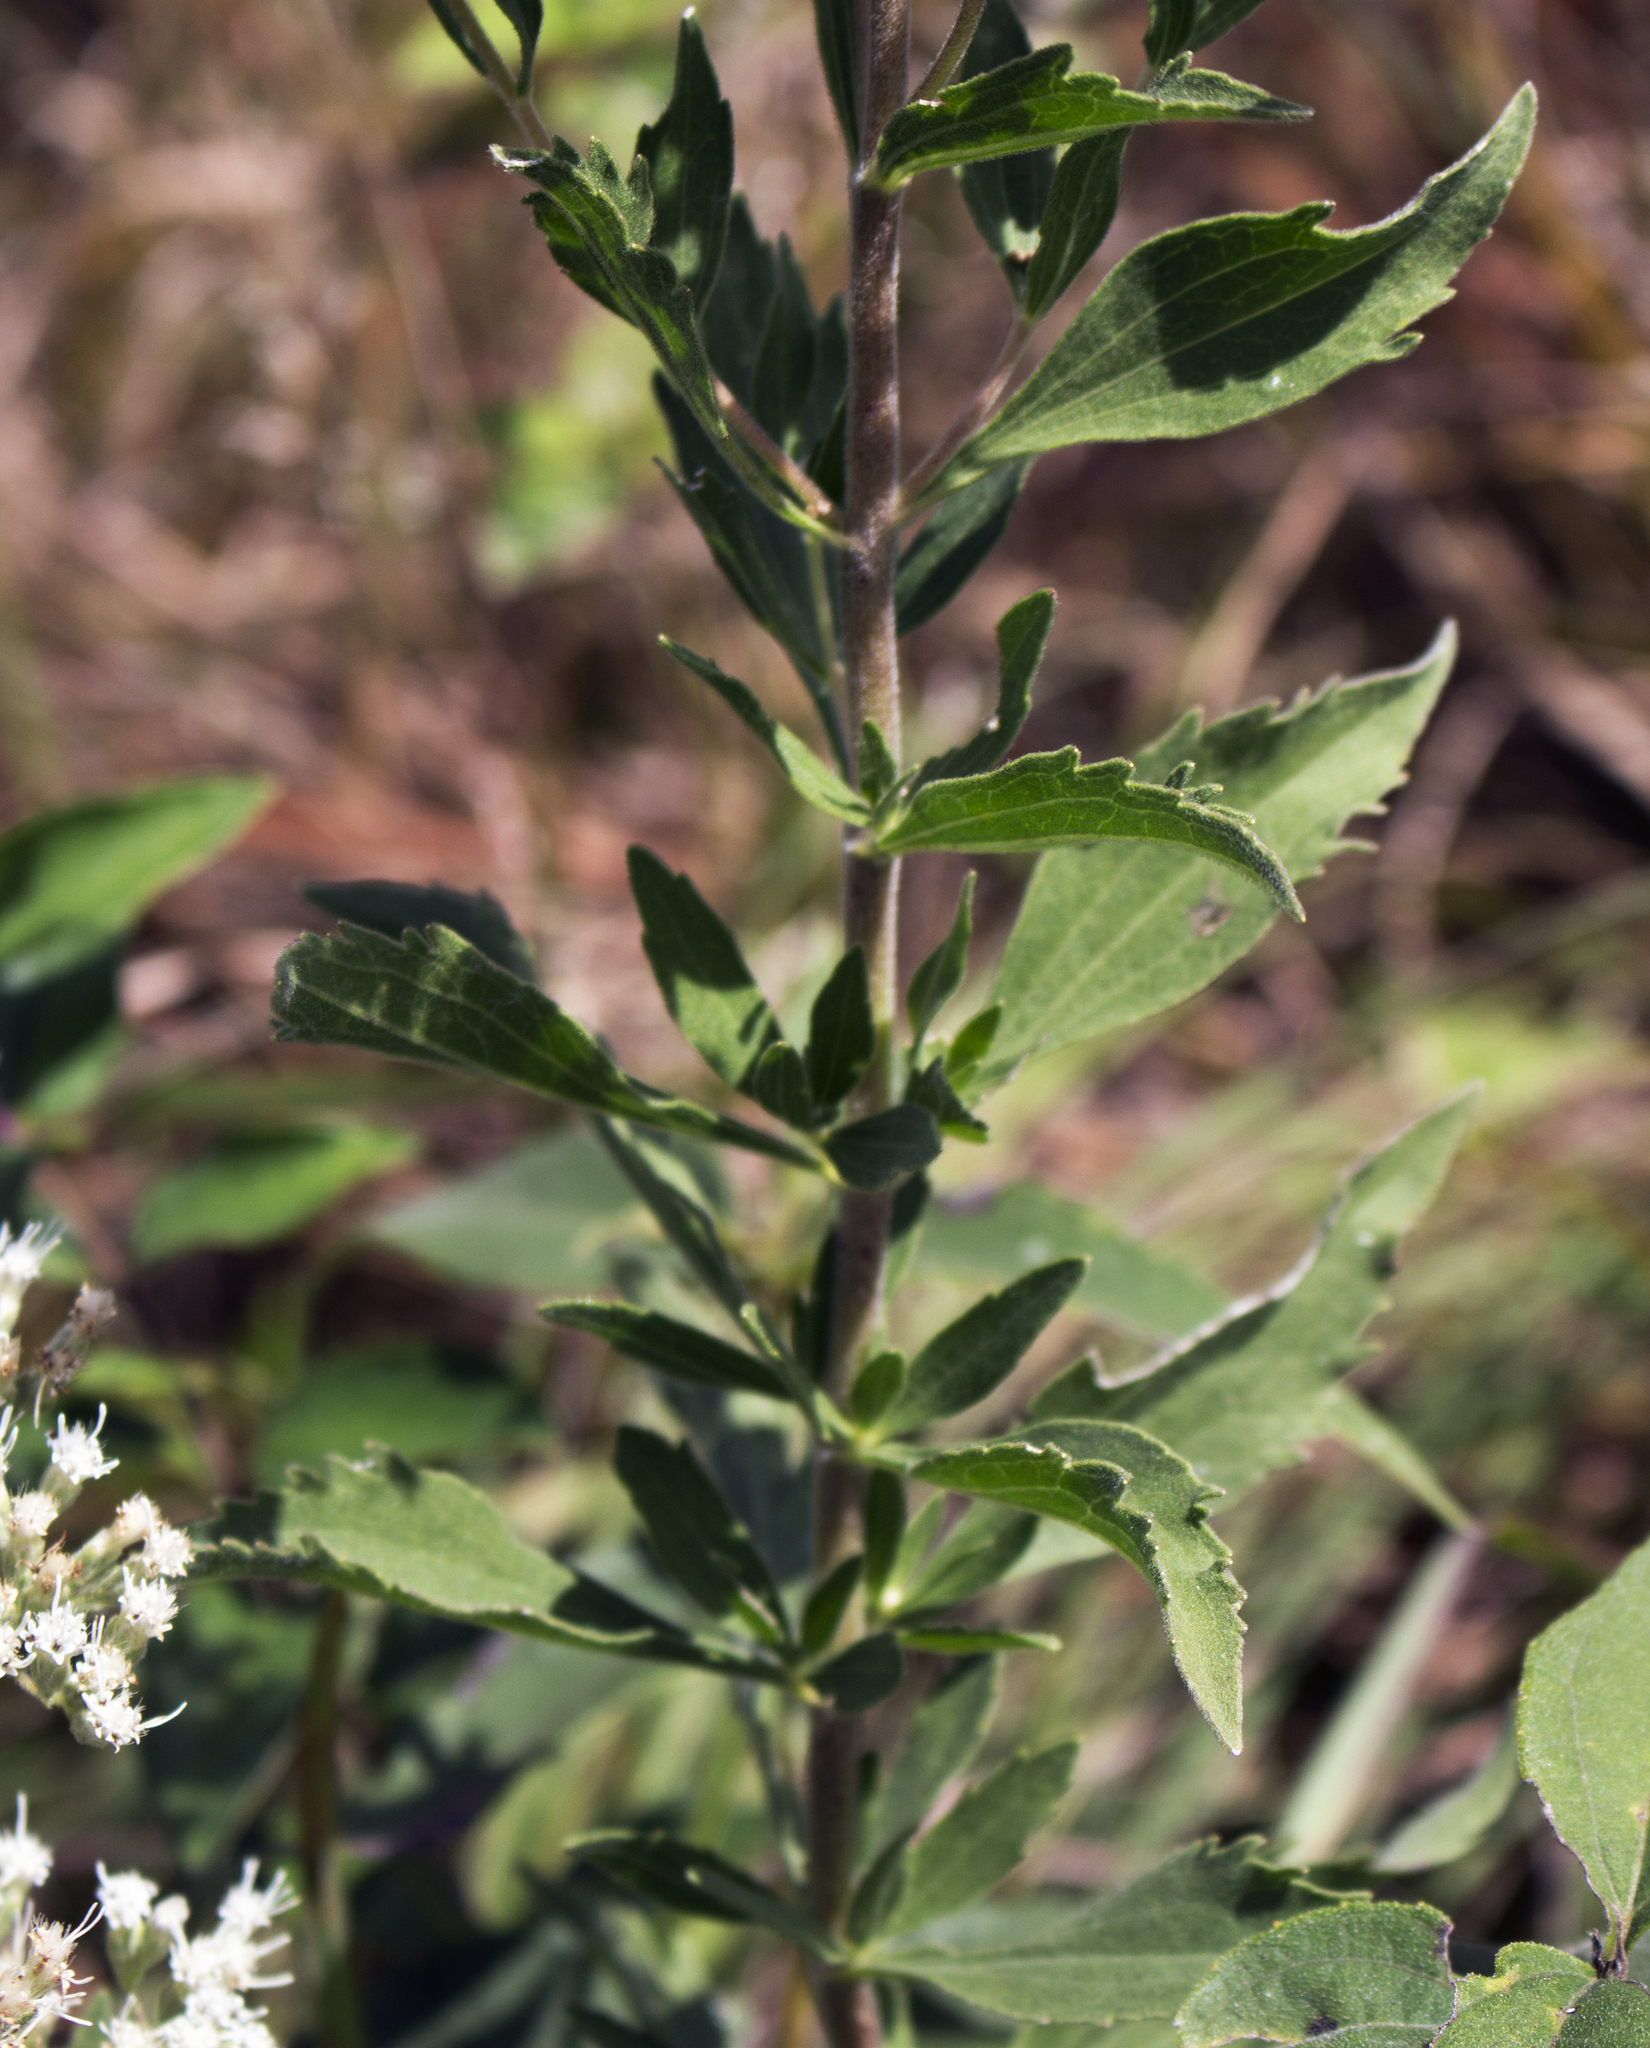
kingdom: Plantae
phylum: Tracheophyta
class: Magnoliopsida
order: Asterales
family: Asteraceae
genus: Eupatorium
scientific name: Eupatorium altissimum
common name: Tall thoroughwort
